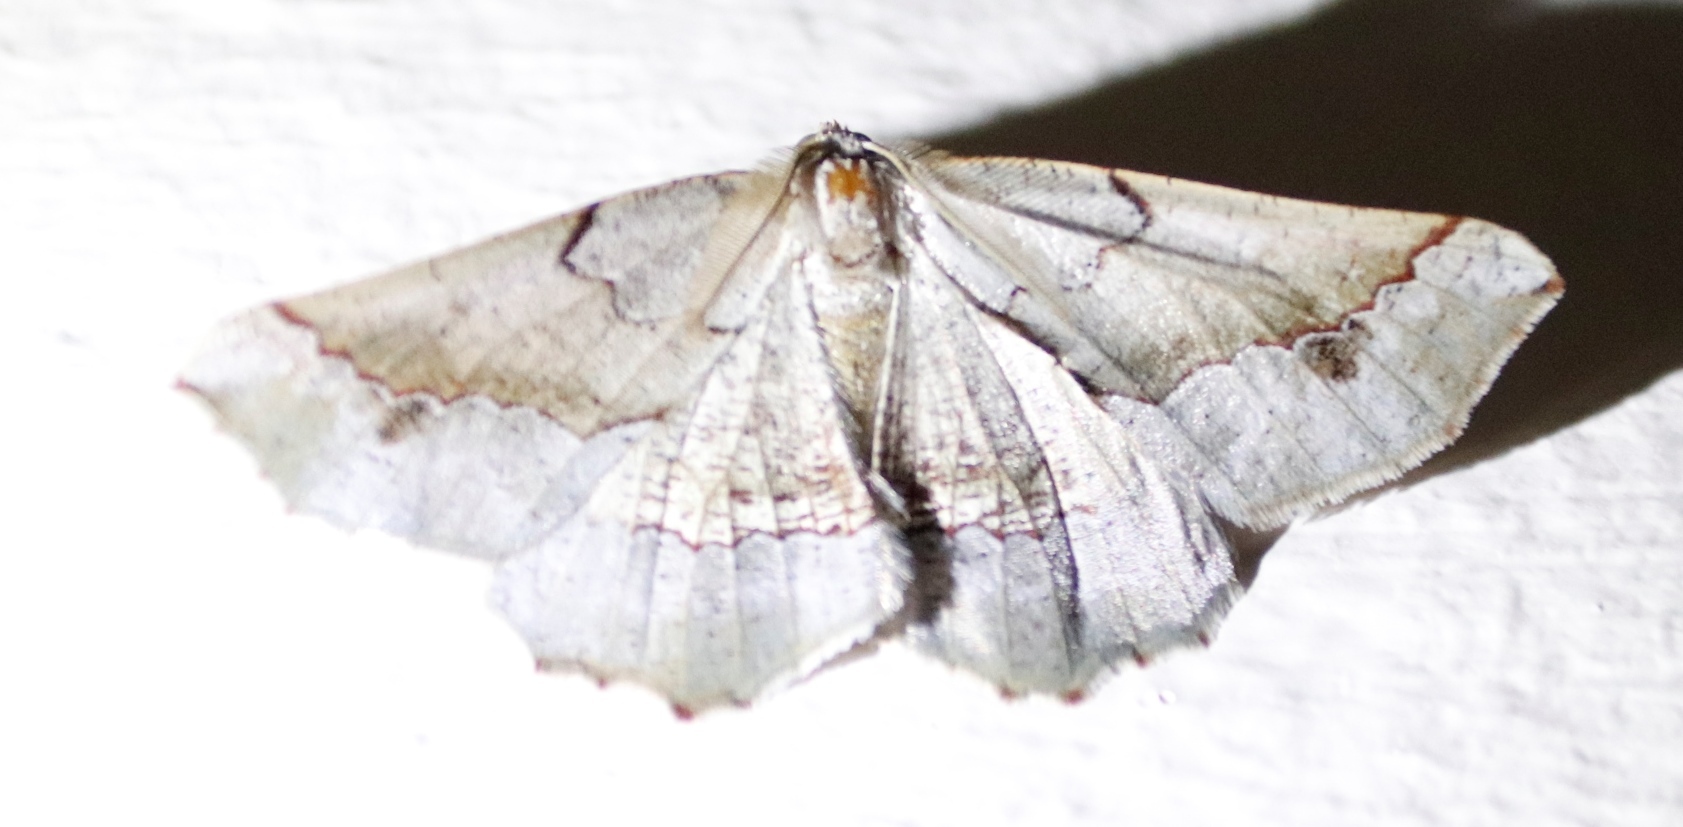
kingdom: Animalia
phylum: Arthropoda
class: Insecta
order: Lepidoptera
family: Geometridae
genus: Drepanogynis
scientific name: Drepanogynis mixtaria
